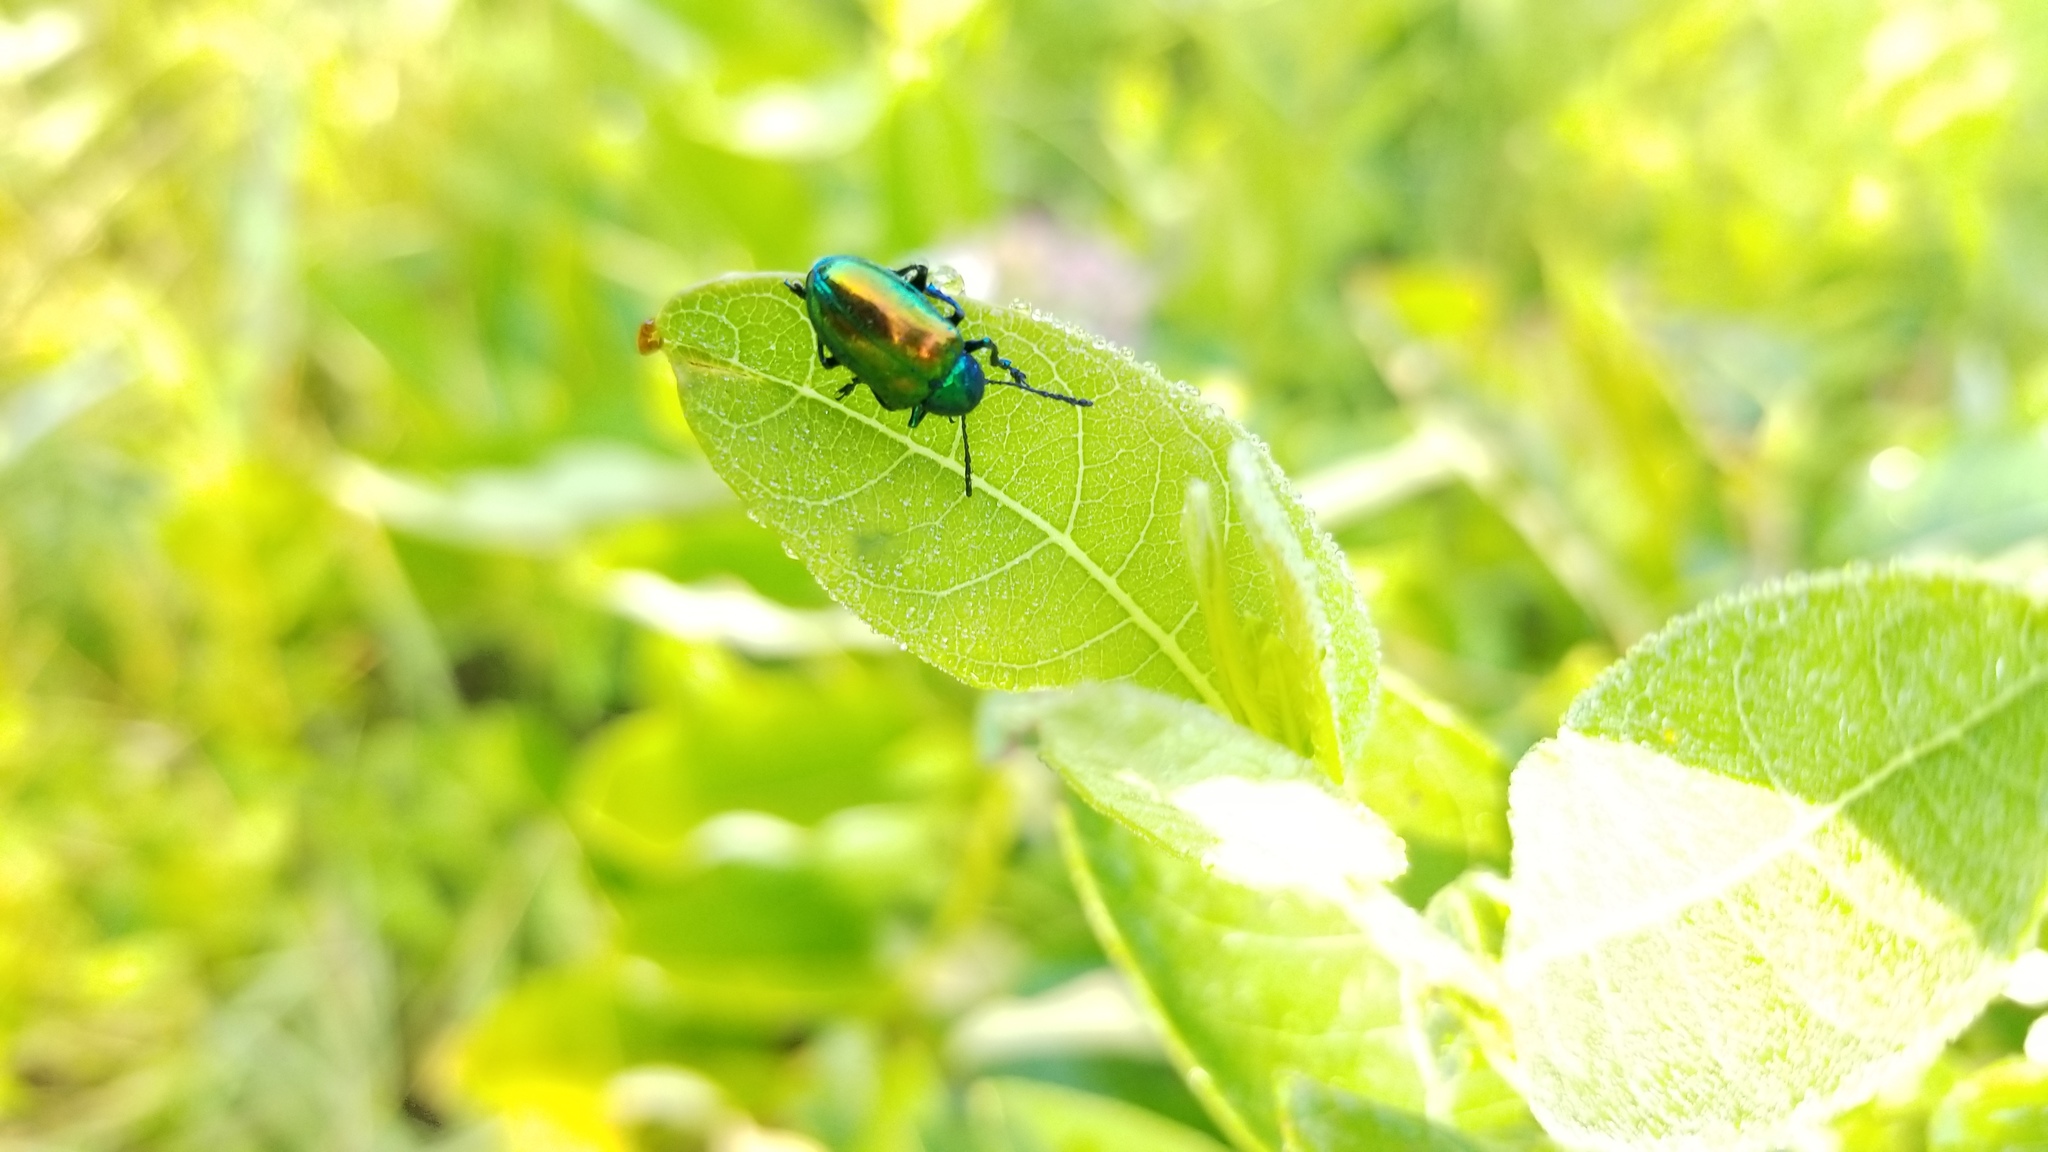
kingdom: Animalia
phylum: Arthropoda
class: Insecta
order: Coleoptera
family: Chrysomelidae
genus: Chrysochus
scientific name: Chrysochus auratus
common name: Dogbane leaf beetle
